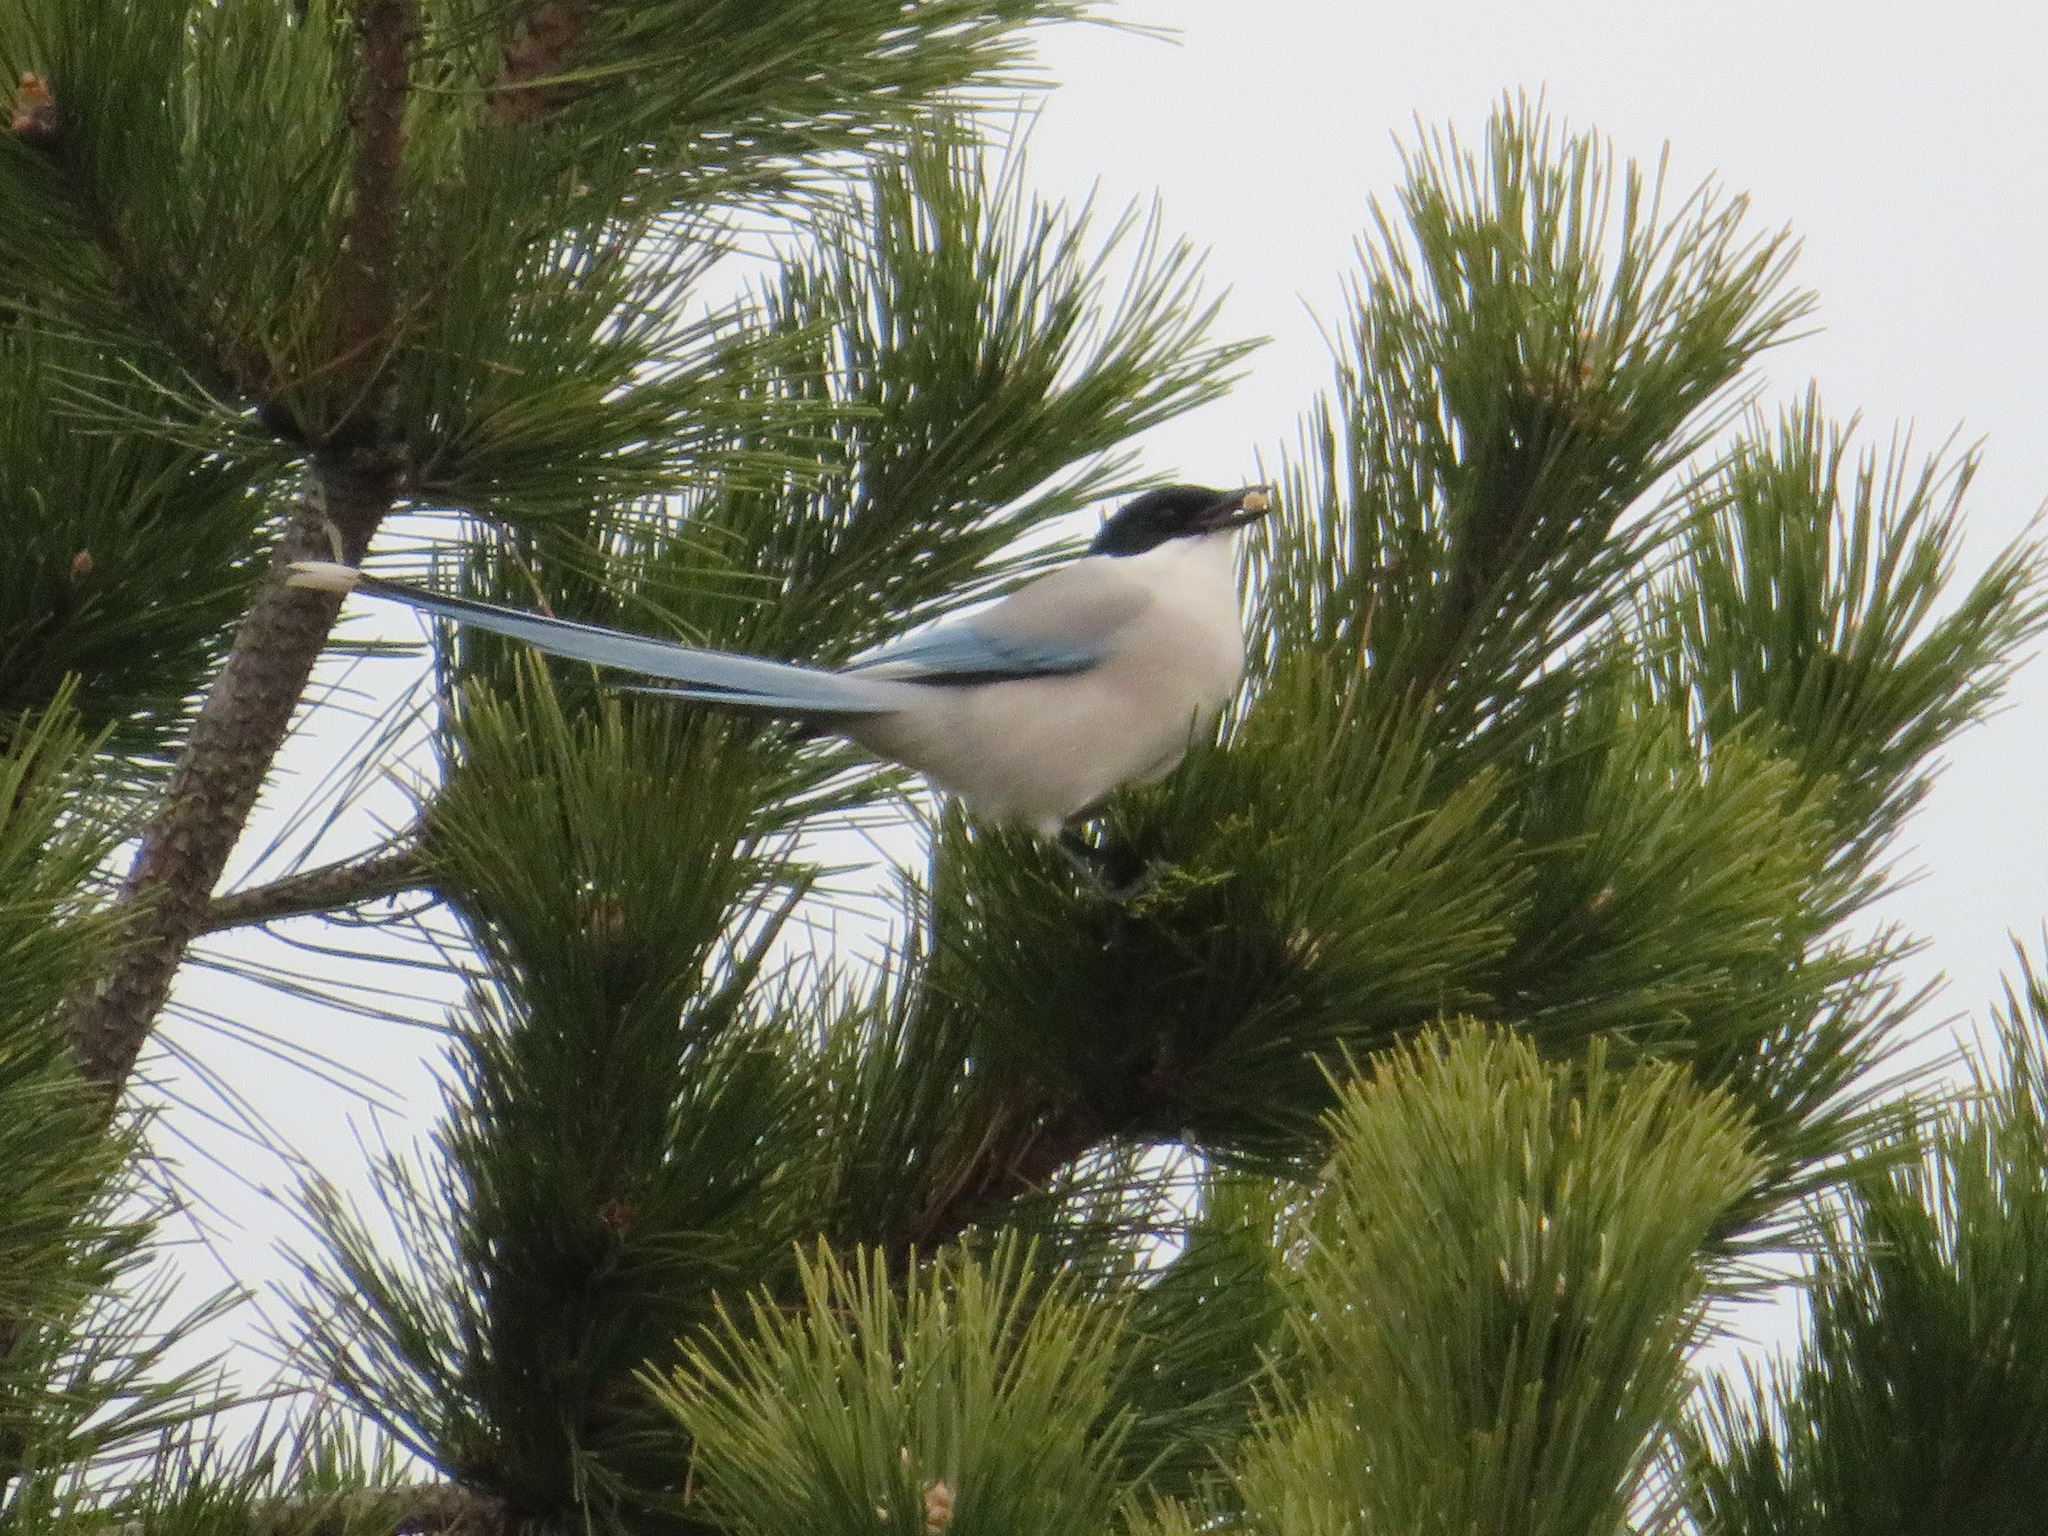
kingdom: Animalia
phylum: Chordata
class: Aves
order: Passeriformes
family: Corvidae
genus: Cyanopica
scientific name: Cyanopica cyanus
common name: Azure-winged magpie
